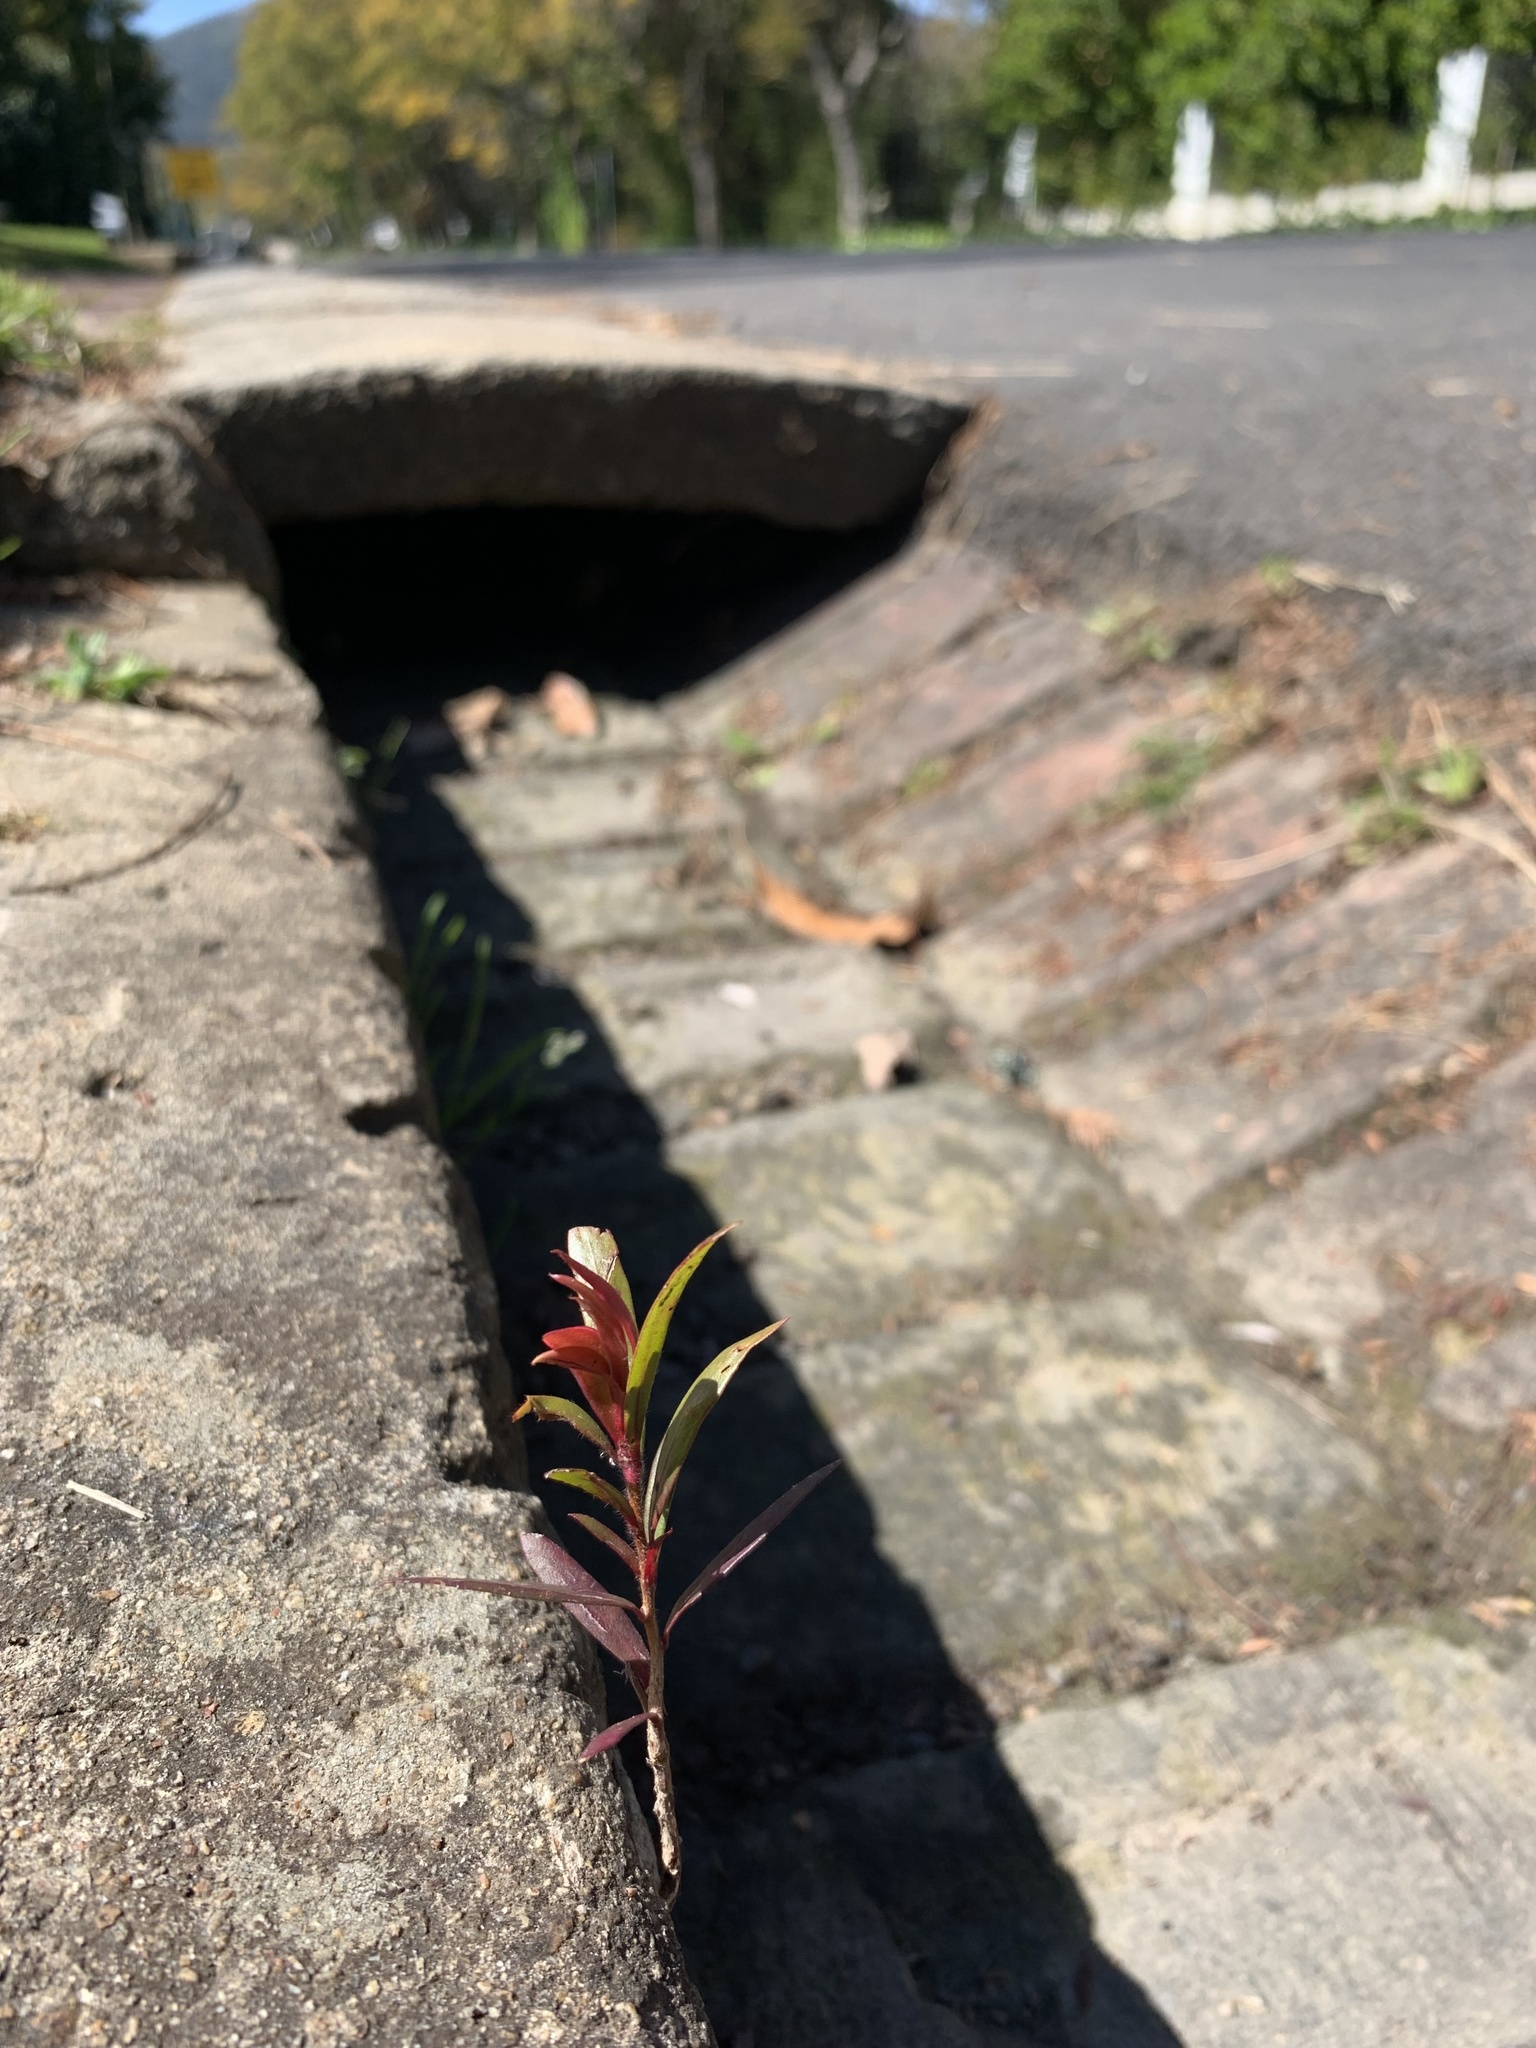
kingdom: Plantae
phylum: Tracheophyta
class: Magnoliopsida
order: Myrtales
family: Myrtaceae
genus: Callistemon
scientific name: Callistemon viminalis
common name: Drooping bottlebrush
